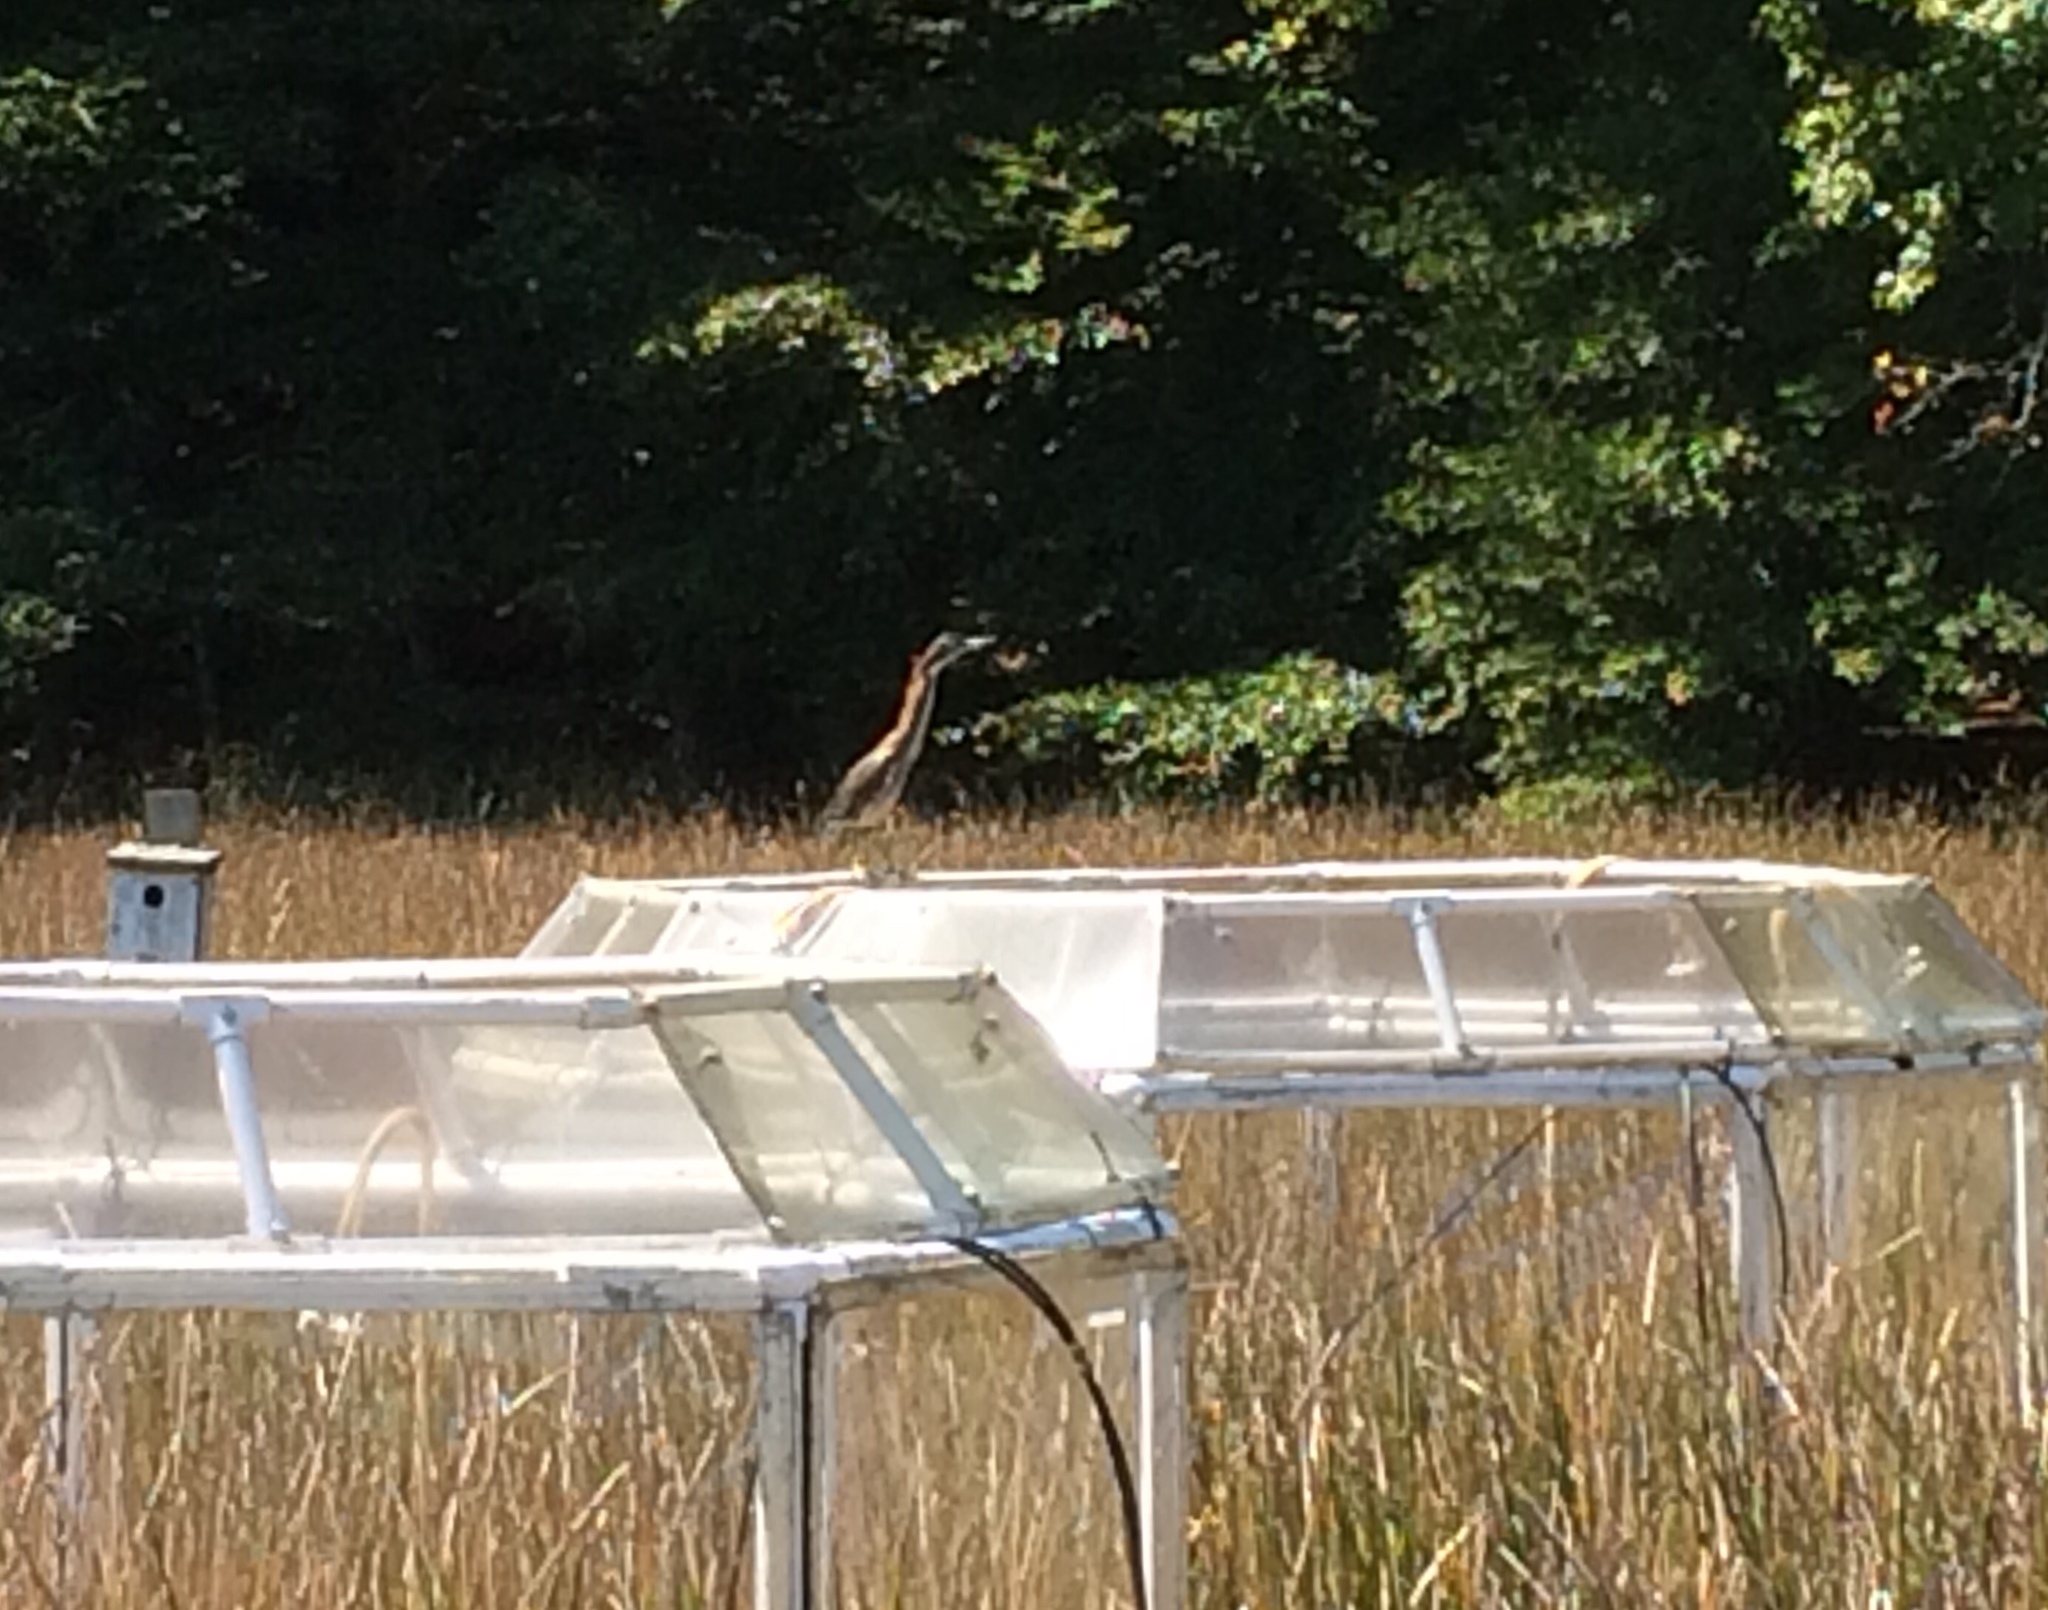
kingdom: Animalia
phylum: Chordata
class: Aves
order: Pelecaniformes
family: Ardeidae
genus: Butorides
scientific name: Butorides virescens
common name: Green heron
